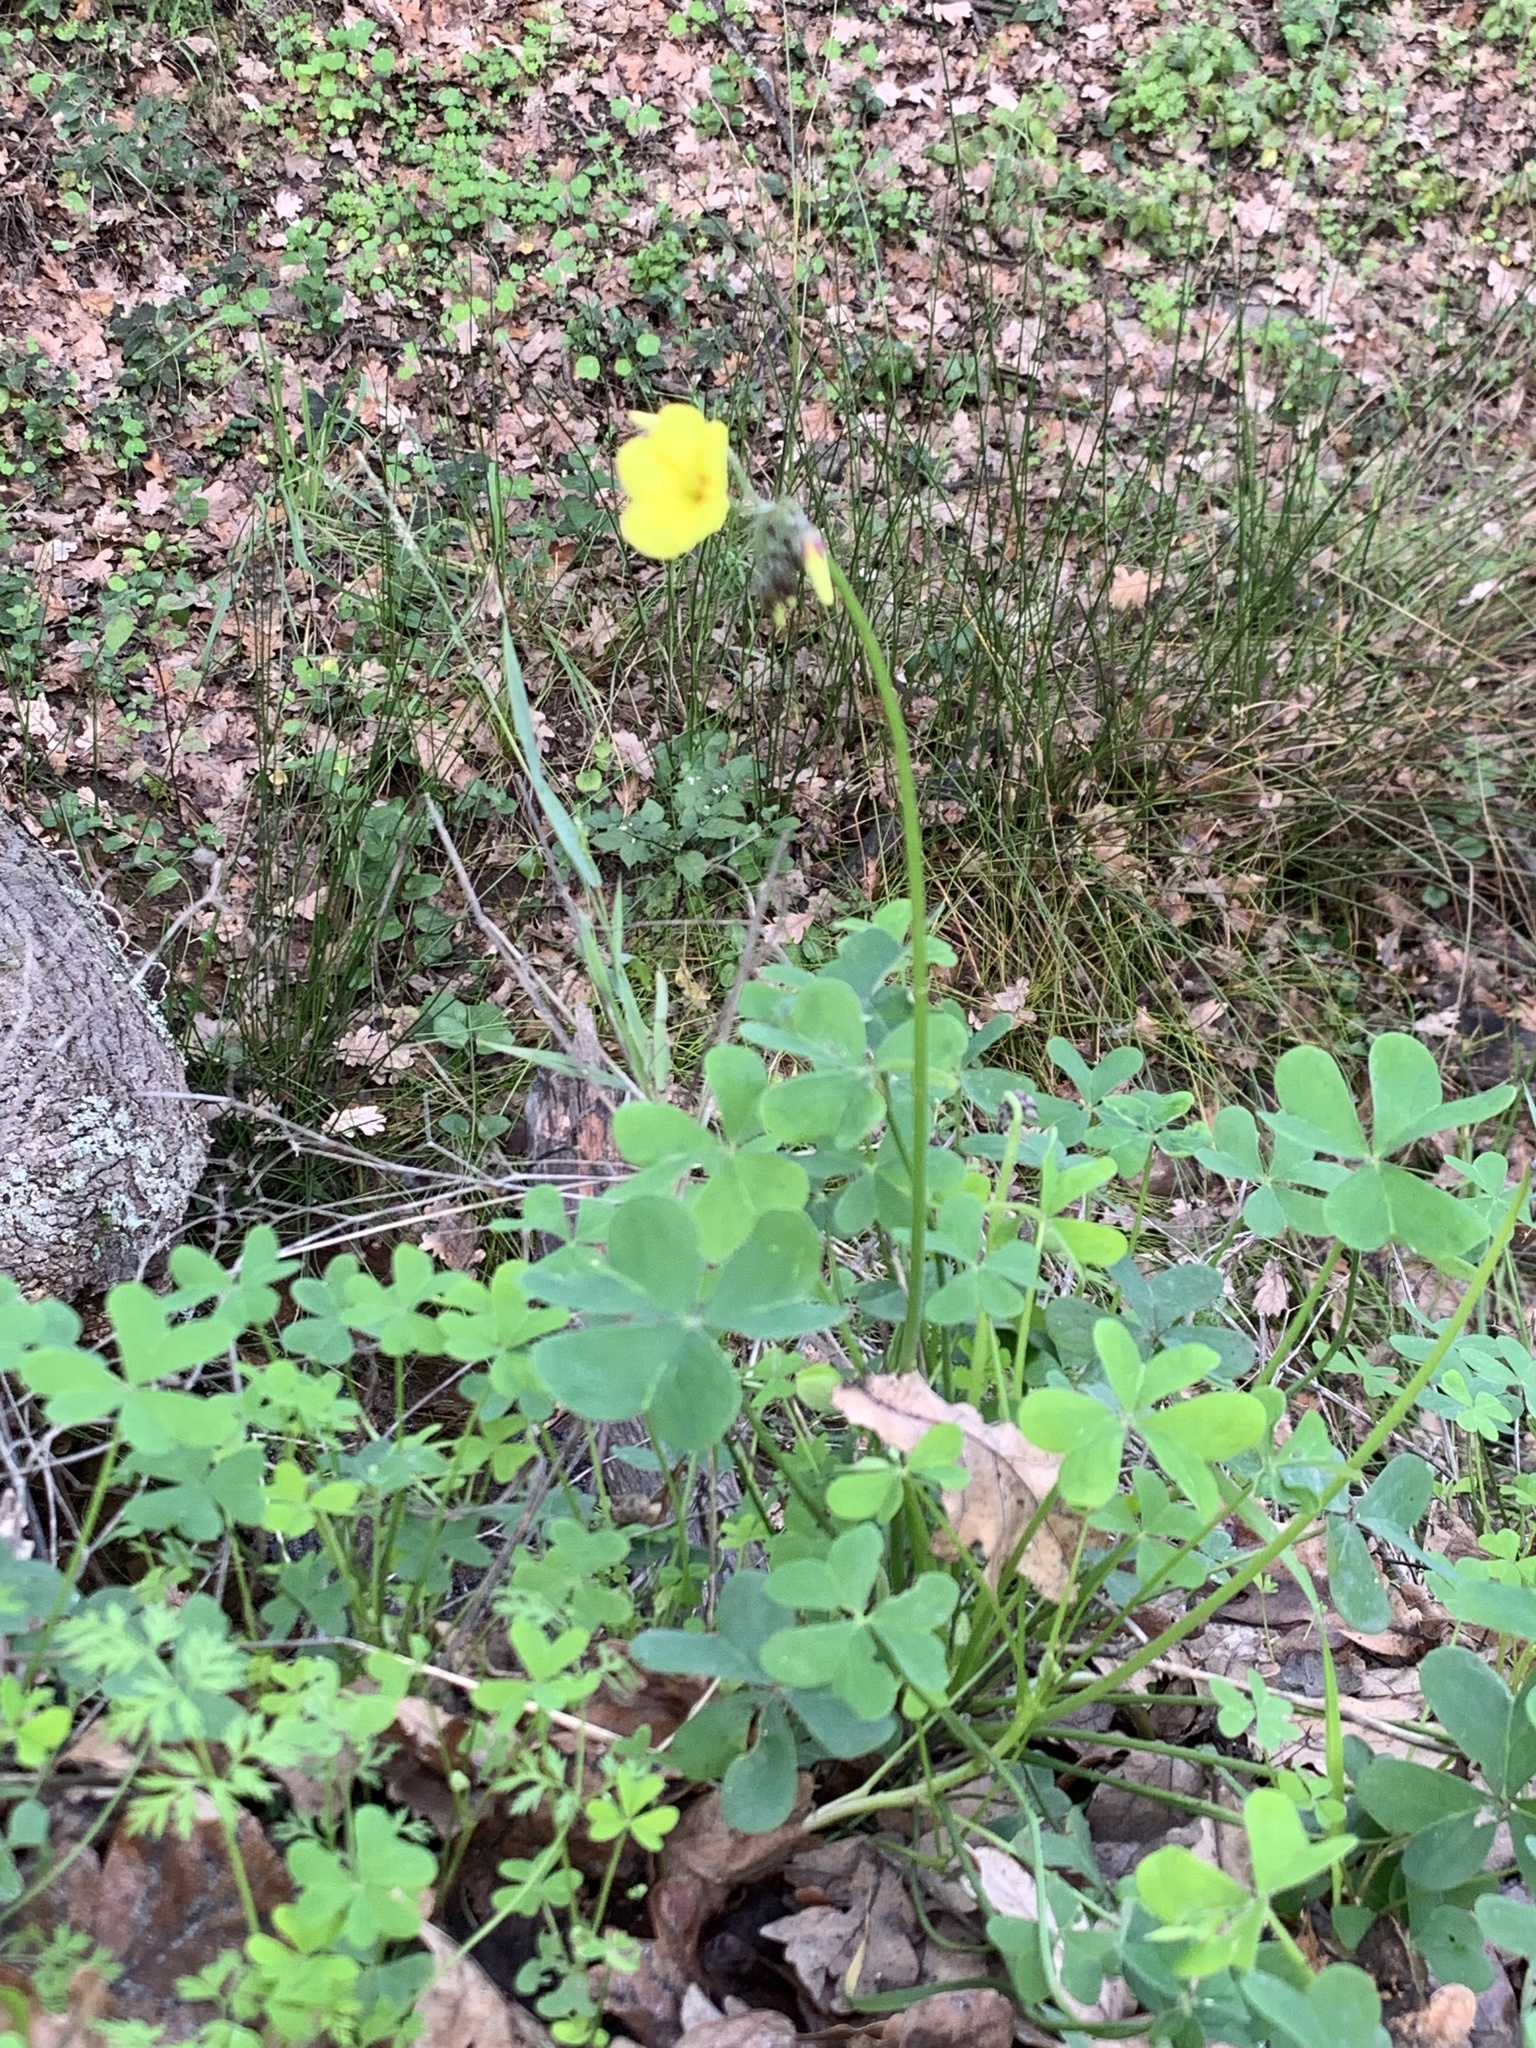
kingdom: Plantae
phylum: Tracheophyta
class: Magnoliopsida
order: Oxalidales
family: Oxalidaceae
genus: Oxalis
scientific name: Oxalis pes-caprae
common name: Bermuda-buttercup
